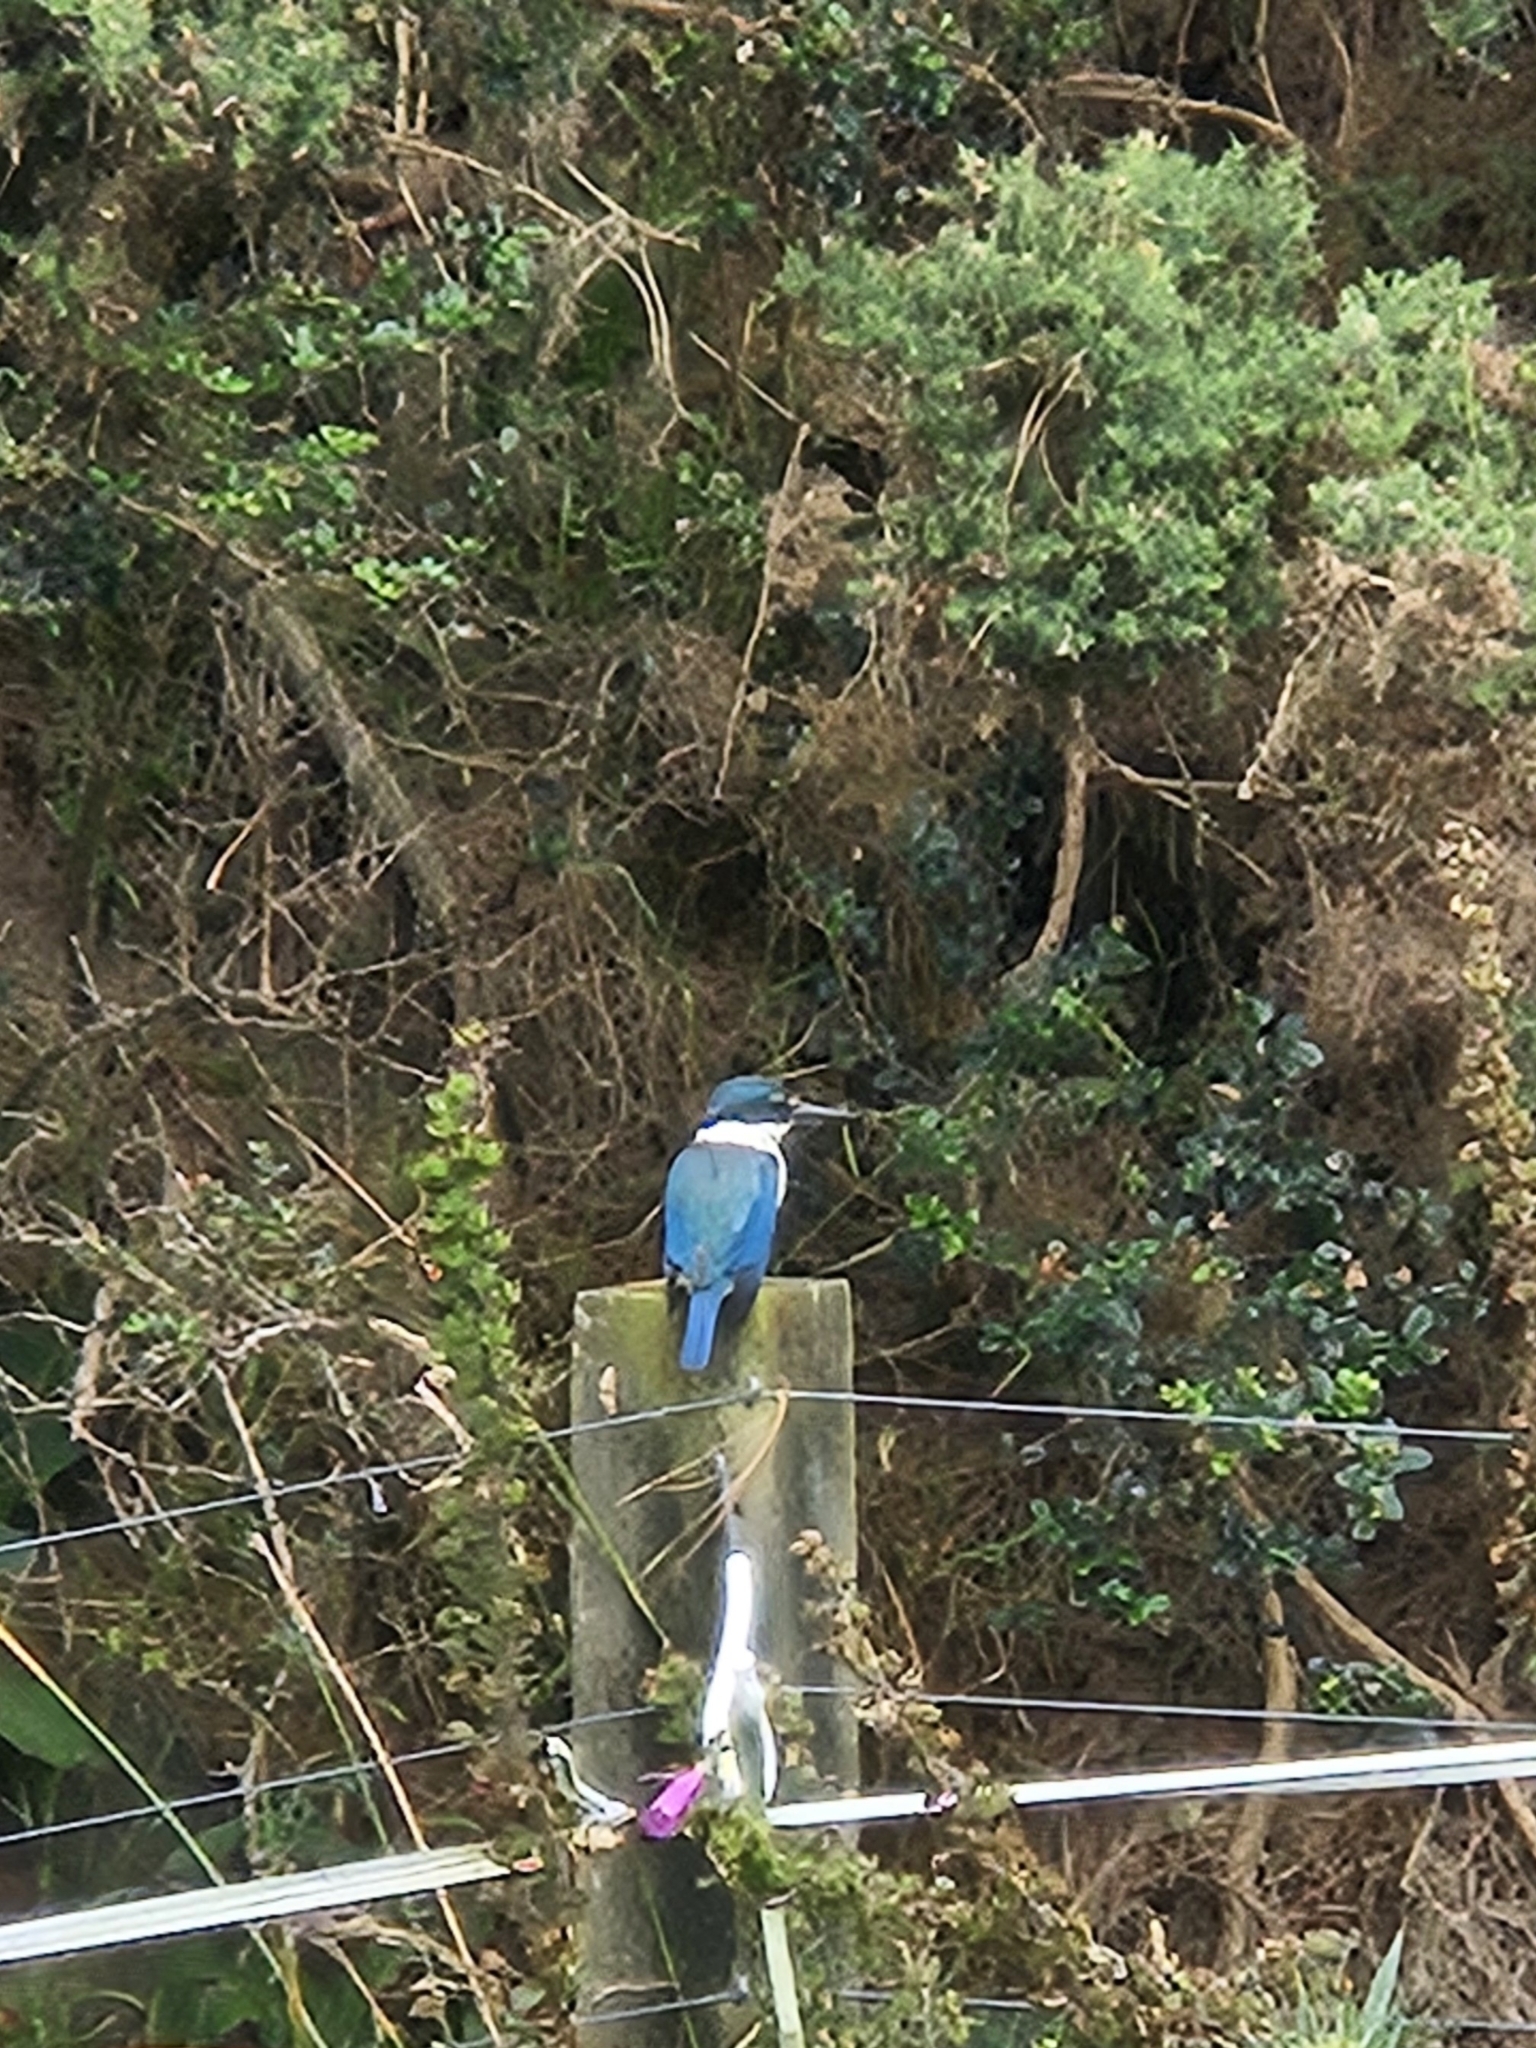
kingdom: Animalia
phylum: Chordata
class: Aves
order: Coraciiformes
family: Alcedinidae
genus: Todiramphus
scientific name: Todiramphus sanctus
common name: Sacred kingfisher
